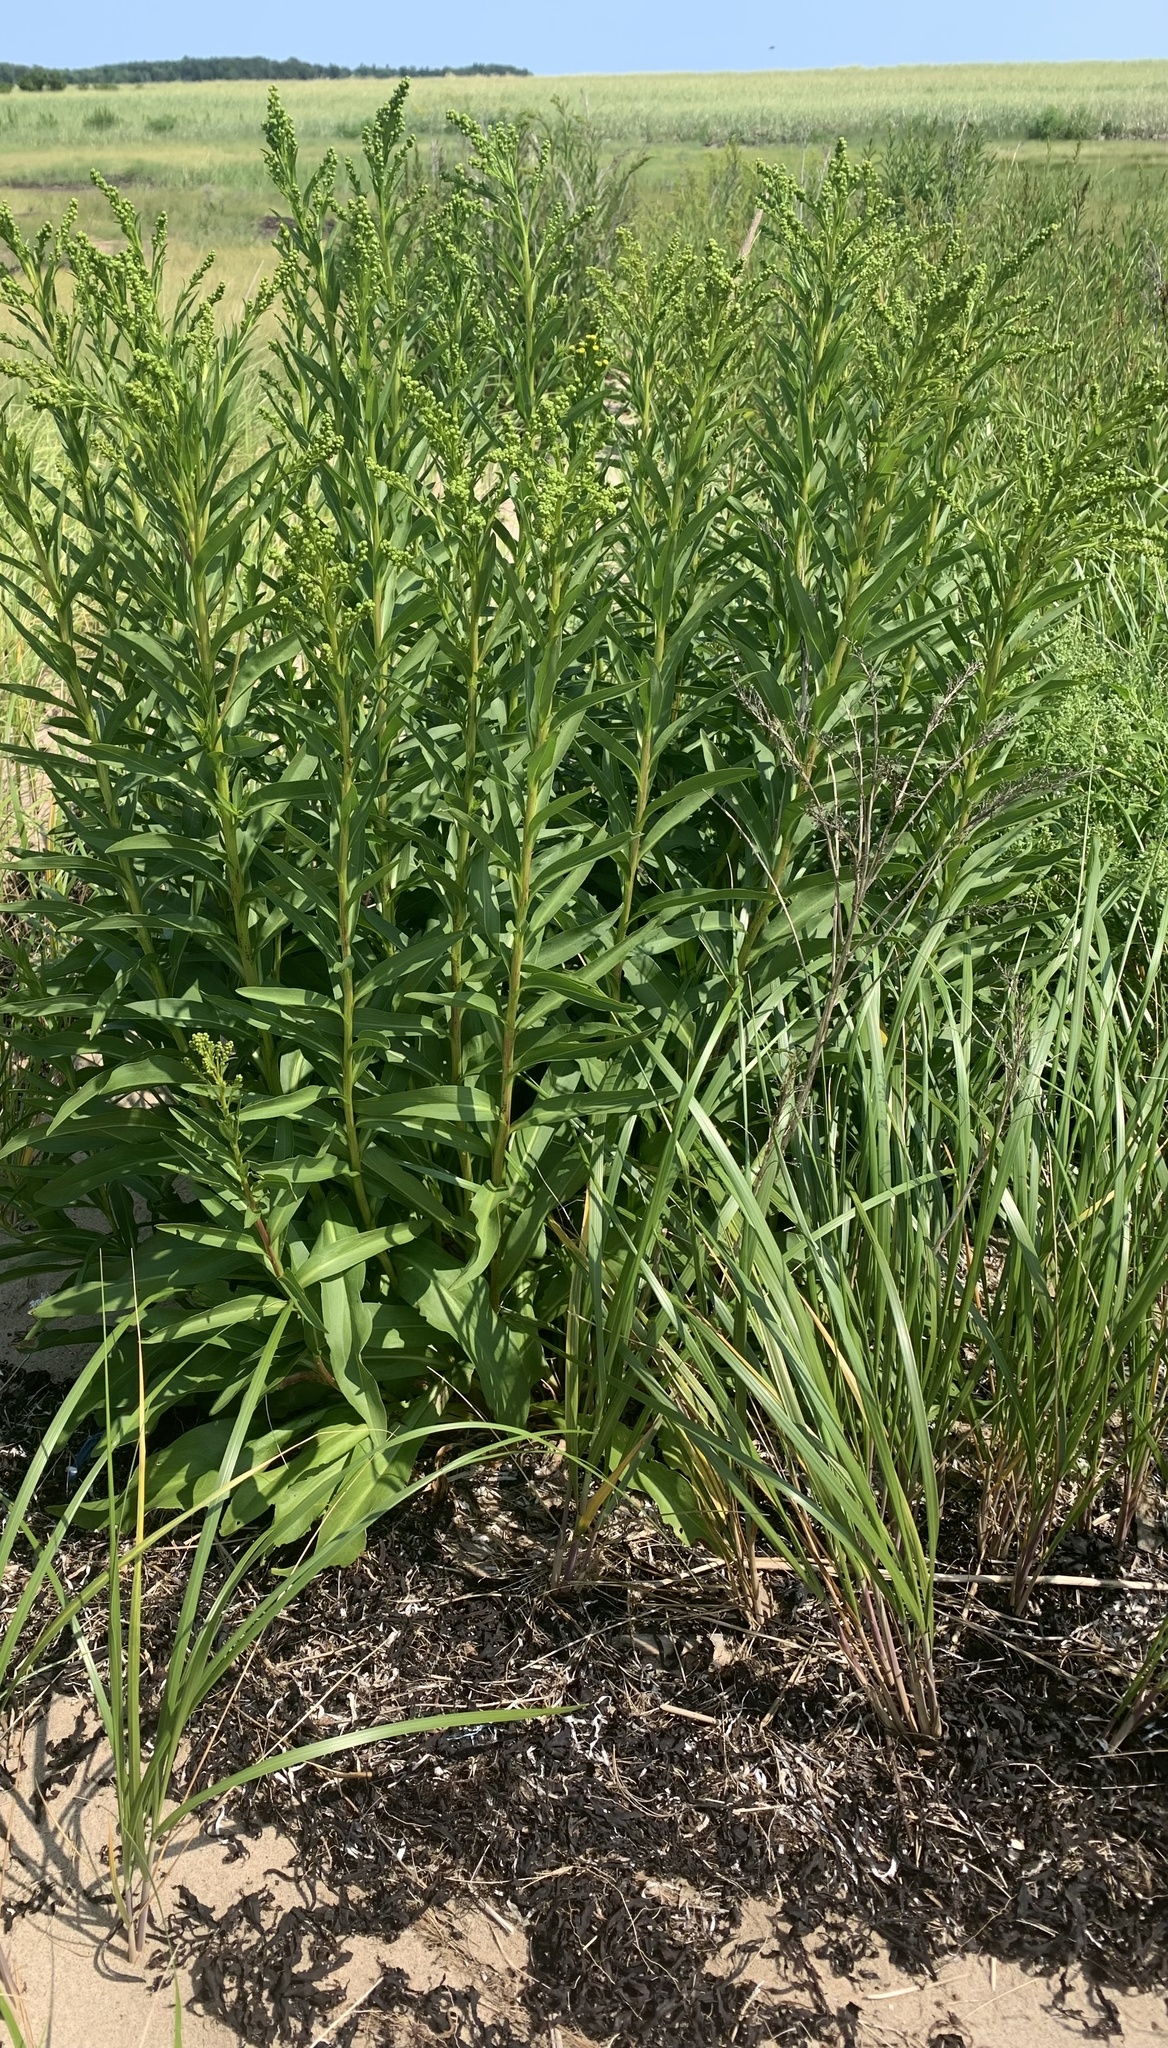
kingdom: Plantae
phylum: Tracheophyta
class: Magnoliopsida
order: Asterales
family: Asteraceae
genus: Solidago
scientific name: Solidago sempervirens
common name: Salt-marsh goldenrod
